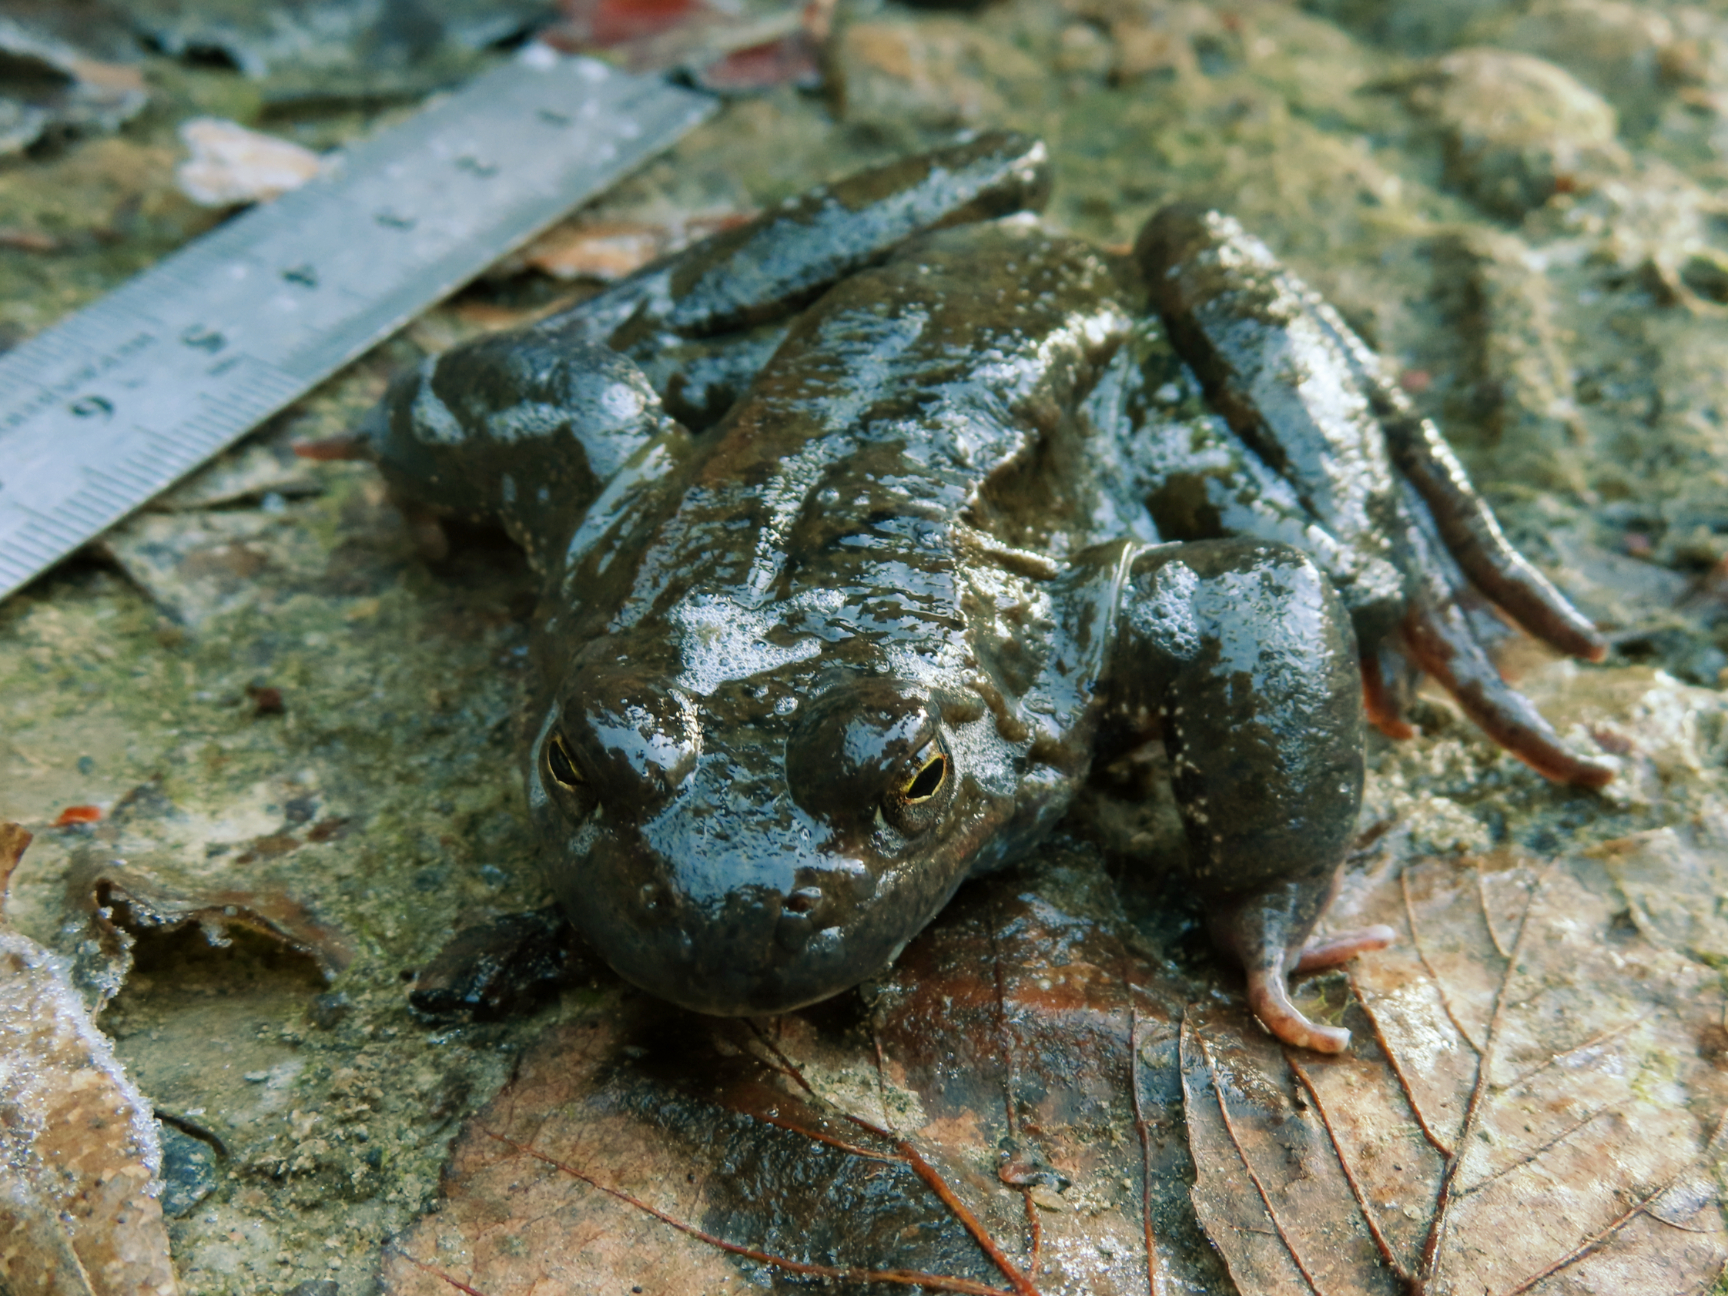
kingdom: Animalia
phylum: Chordata
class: Amphibia
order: Anura
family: Ranidae
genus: Rana
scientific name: Rana temporaria
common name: Common frog
